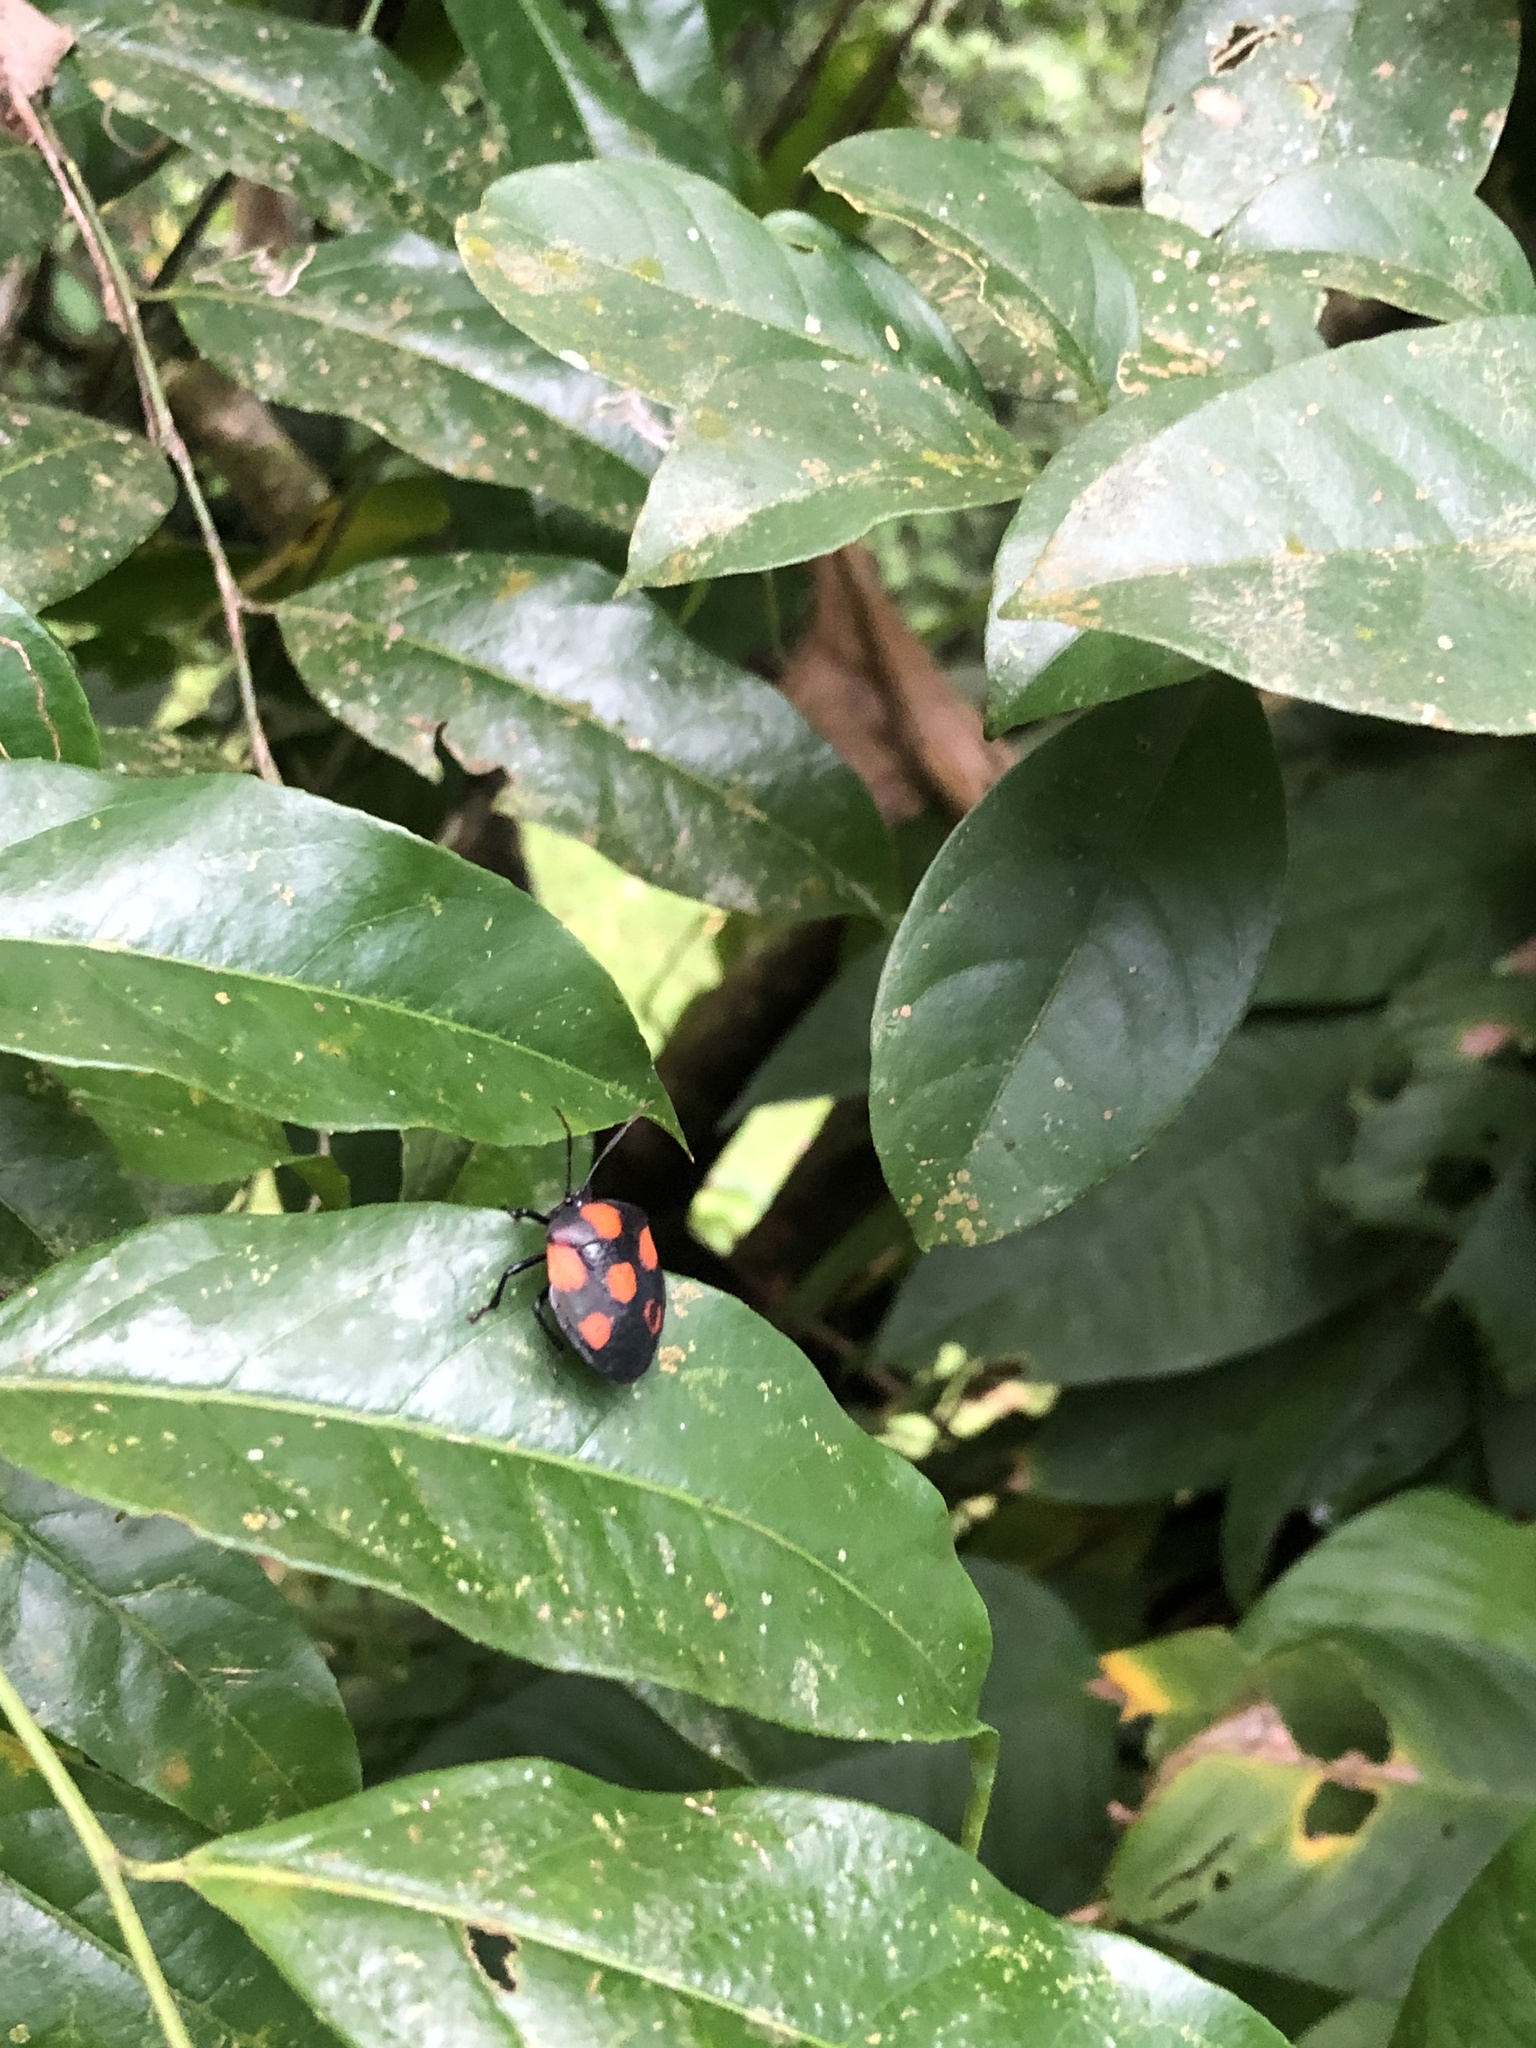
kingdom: Animalia
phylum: Arthropoda
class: Insecta
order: Hemiptera
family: Pentatomidae
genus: Brachystethus
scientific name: Brachystethus rubromaculatus
